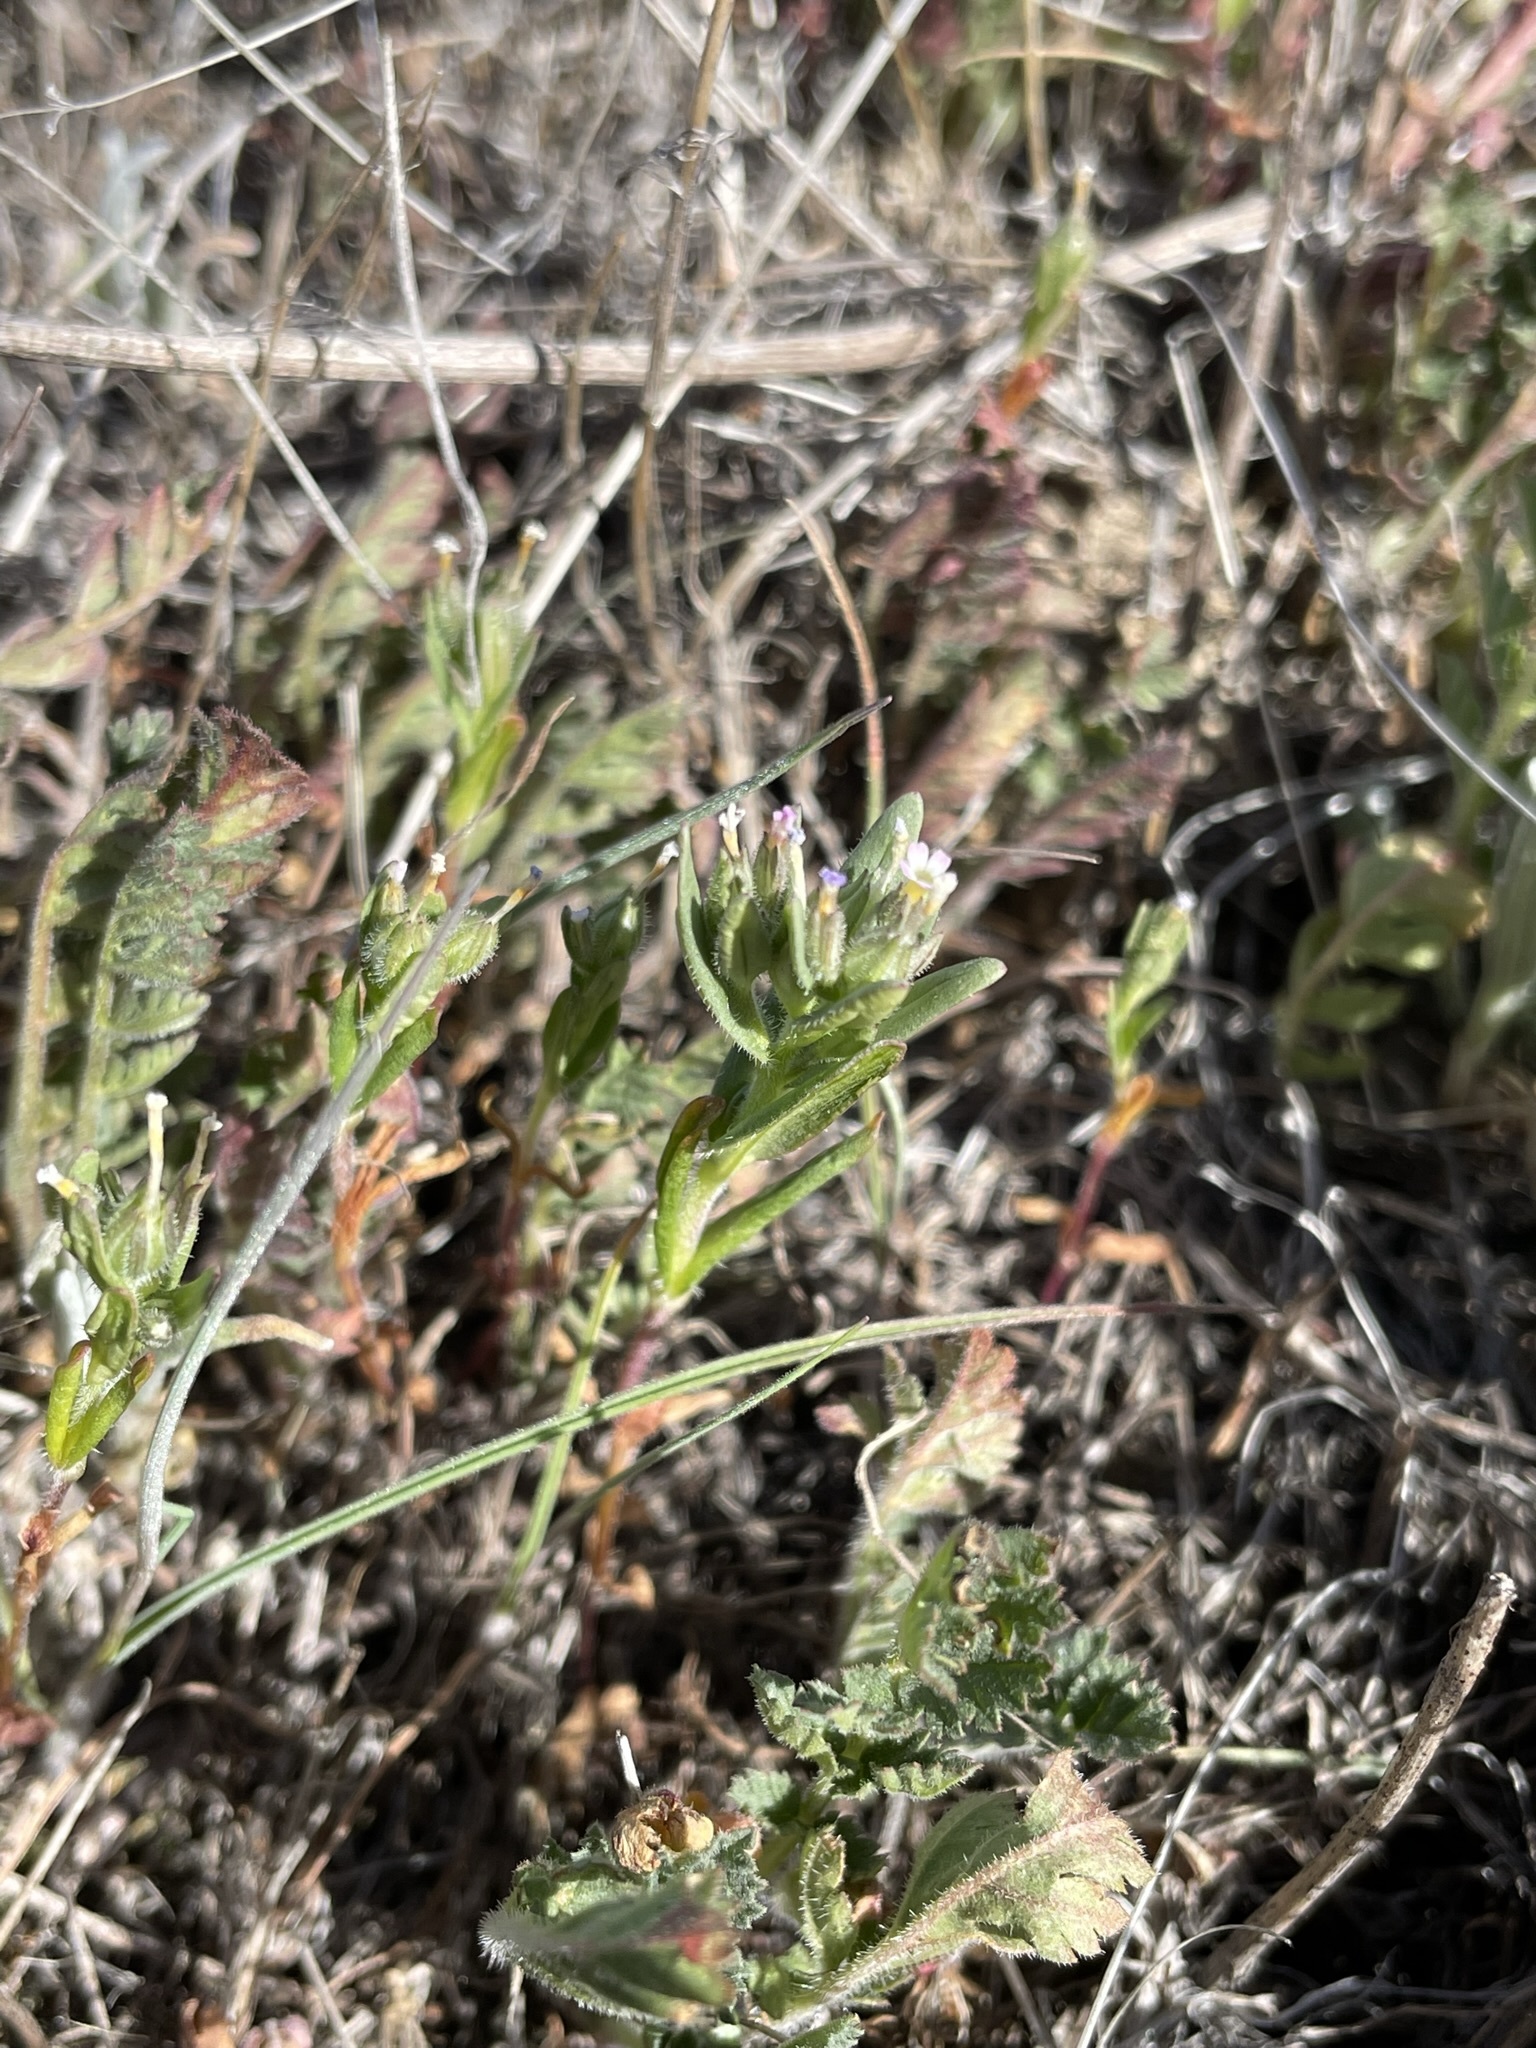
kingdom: Plantae
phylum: Tracheophyta
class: Magnoliopsida
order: Ericales
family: Polemoniaceae
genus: Phlox
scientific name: Phlox gracilis
